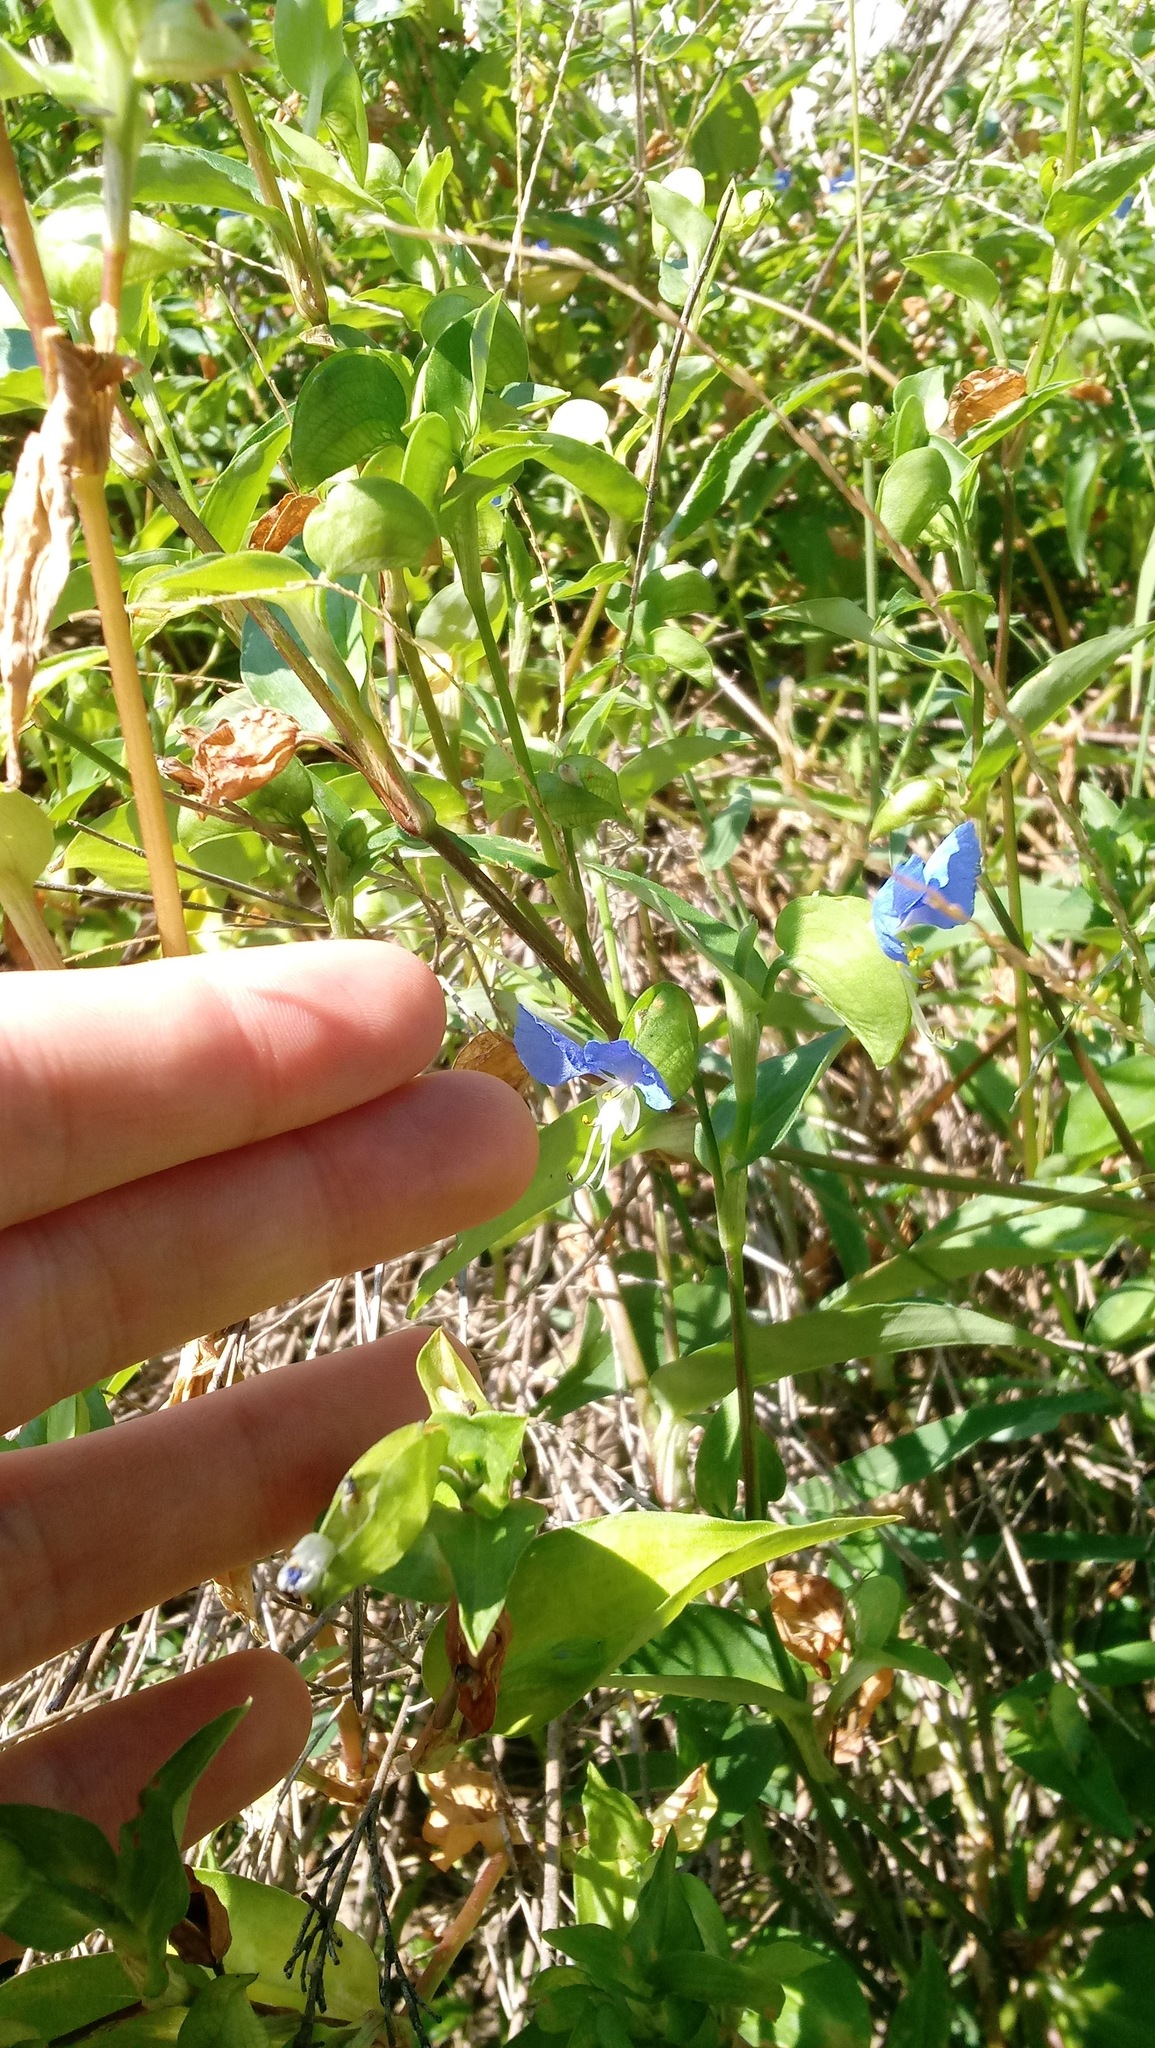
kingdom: Plantae
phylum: Tracheophyta
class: Liliopsida
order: Commelinales
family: Commelinaceae
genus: Commelina
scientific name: Commelina communis
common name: Asiatic dayflower
